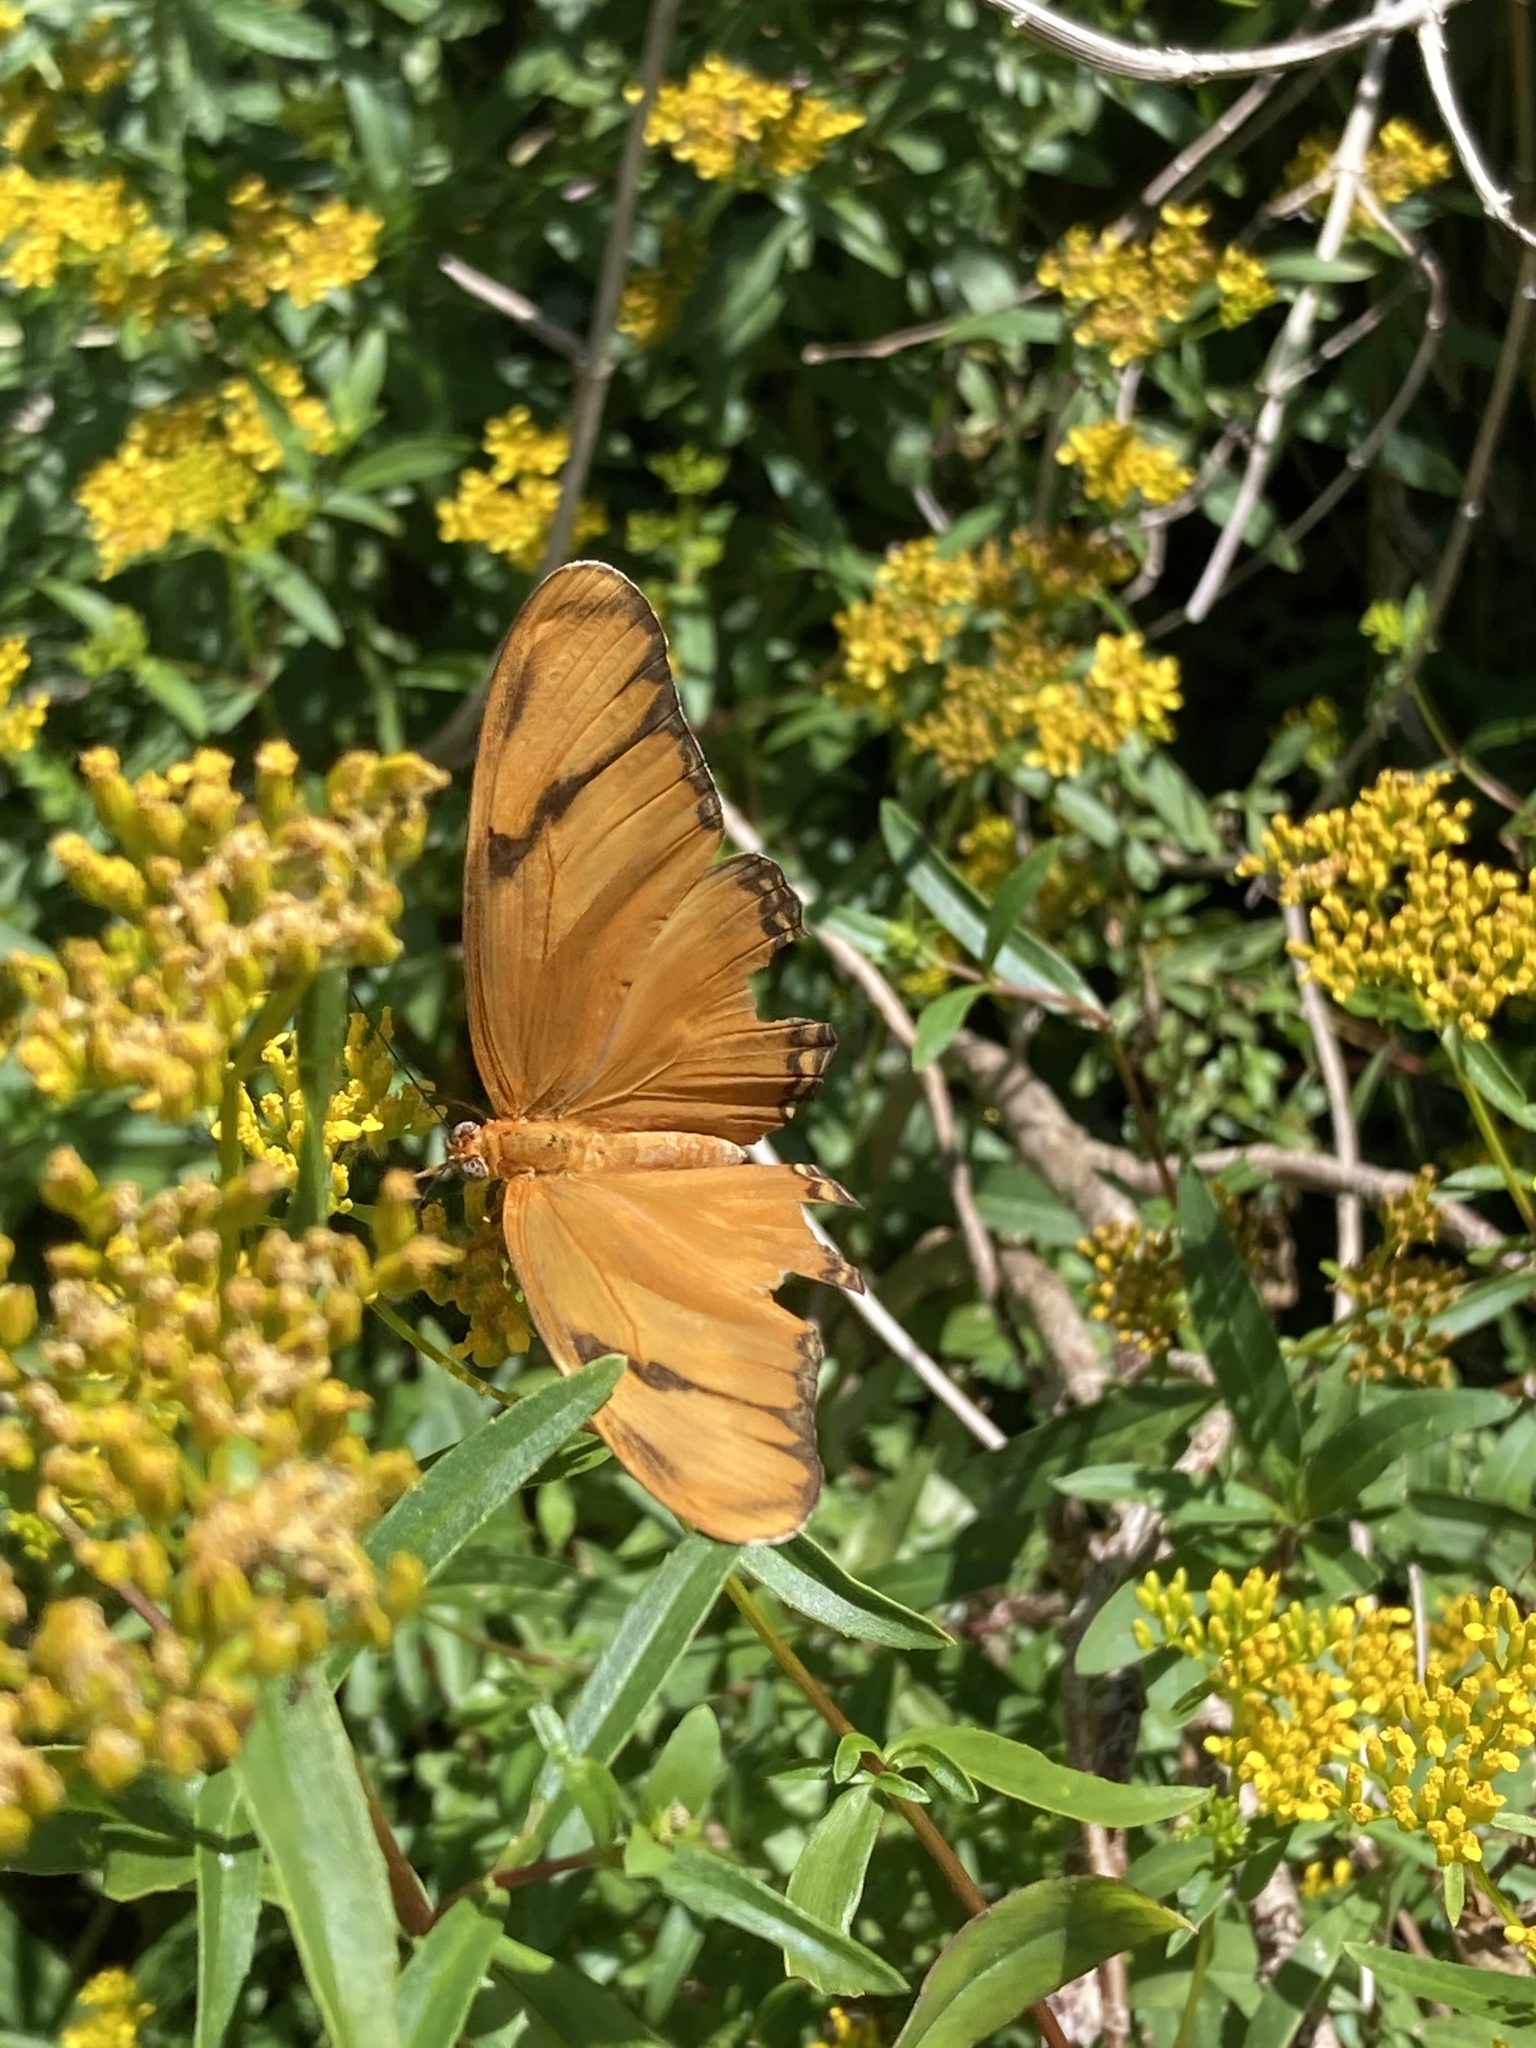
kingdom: Animalia
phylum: Arthropoda
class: Insecta
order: Lepidoptera
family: Nymphalidae
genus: Dryas
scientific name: Dryas iulia
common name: Flambeau
